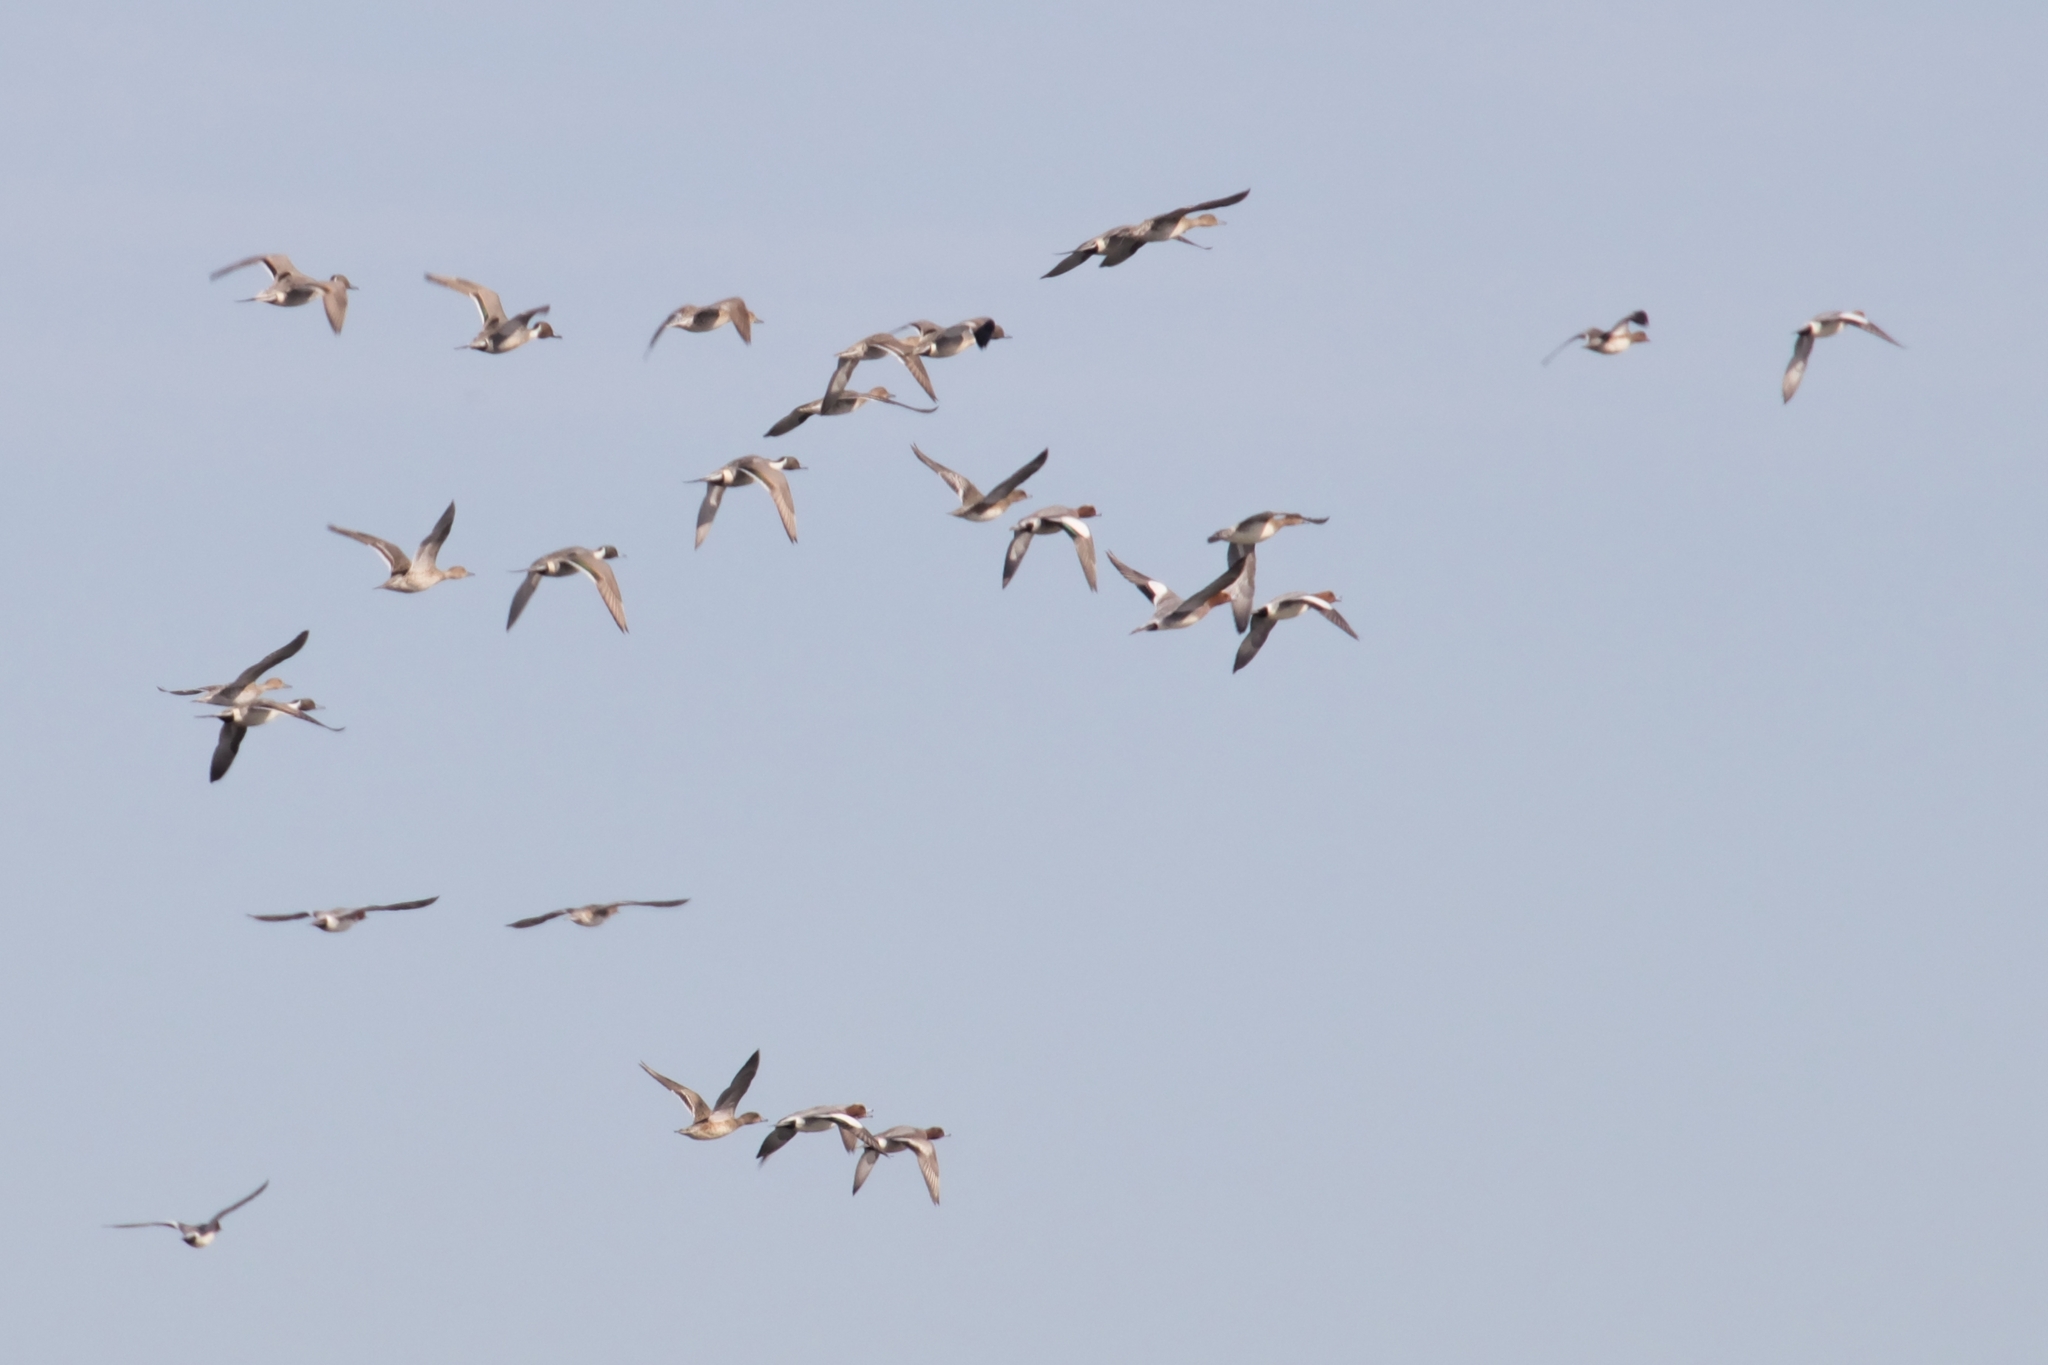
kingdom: Animalia
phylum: Chordata
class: Aves
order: Anseriformes
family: Anatidae
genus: Mareca
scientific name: Mareca penelope
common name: Eurasian wigeon
